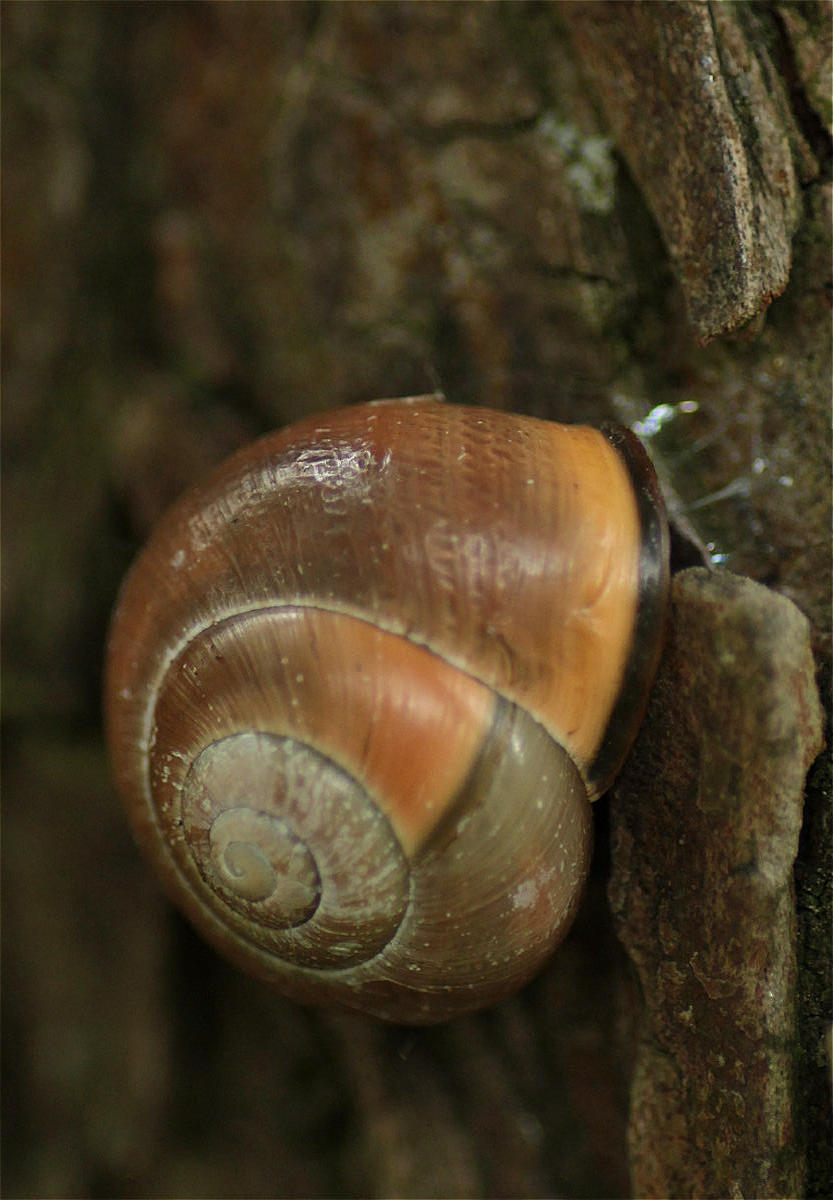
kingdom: Animalia
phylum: Mollusca
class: Gastropoda
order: Stylommatophora
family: Helicidae
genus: Cepaea
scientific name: Cepaea nemoralis
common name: Grovesnail
